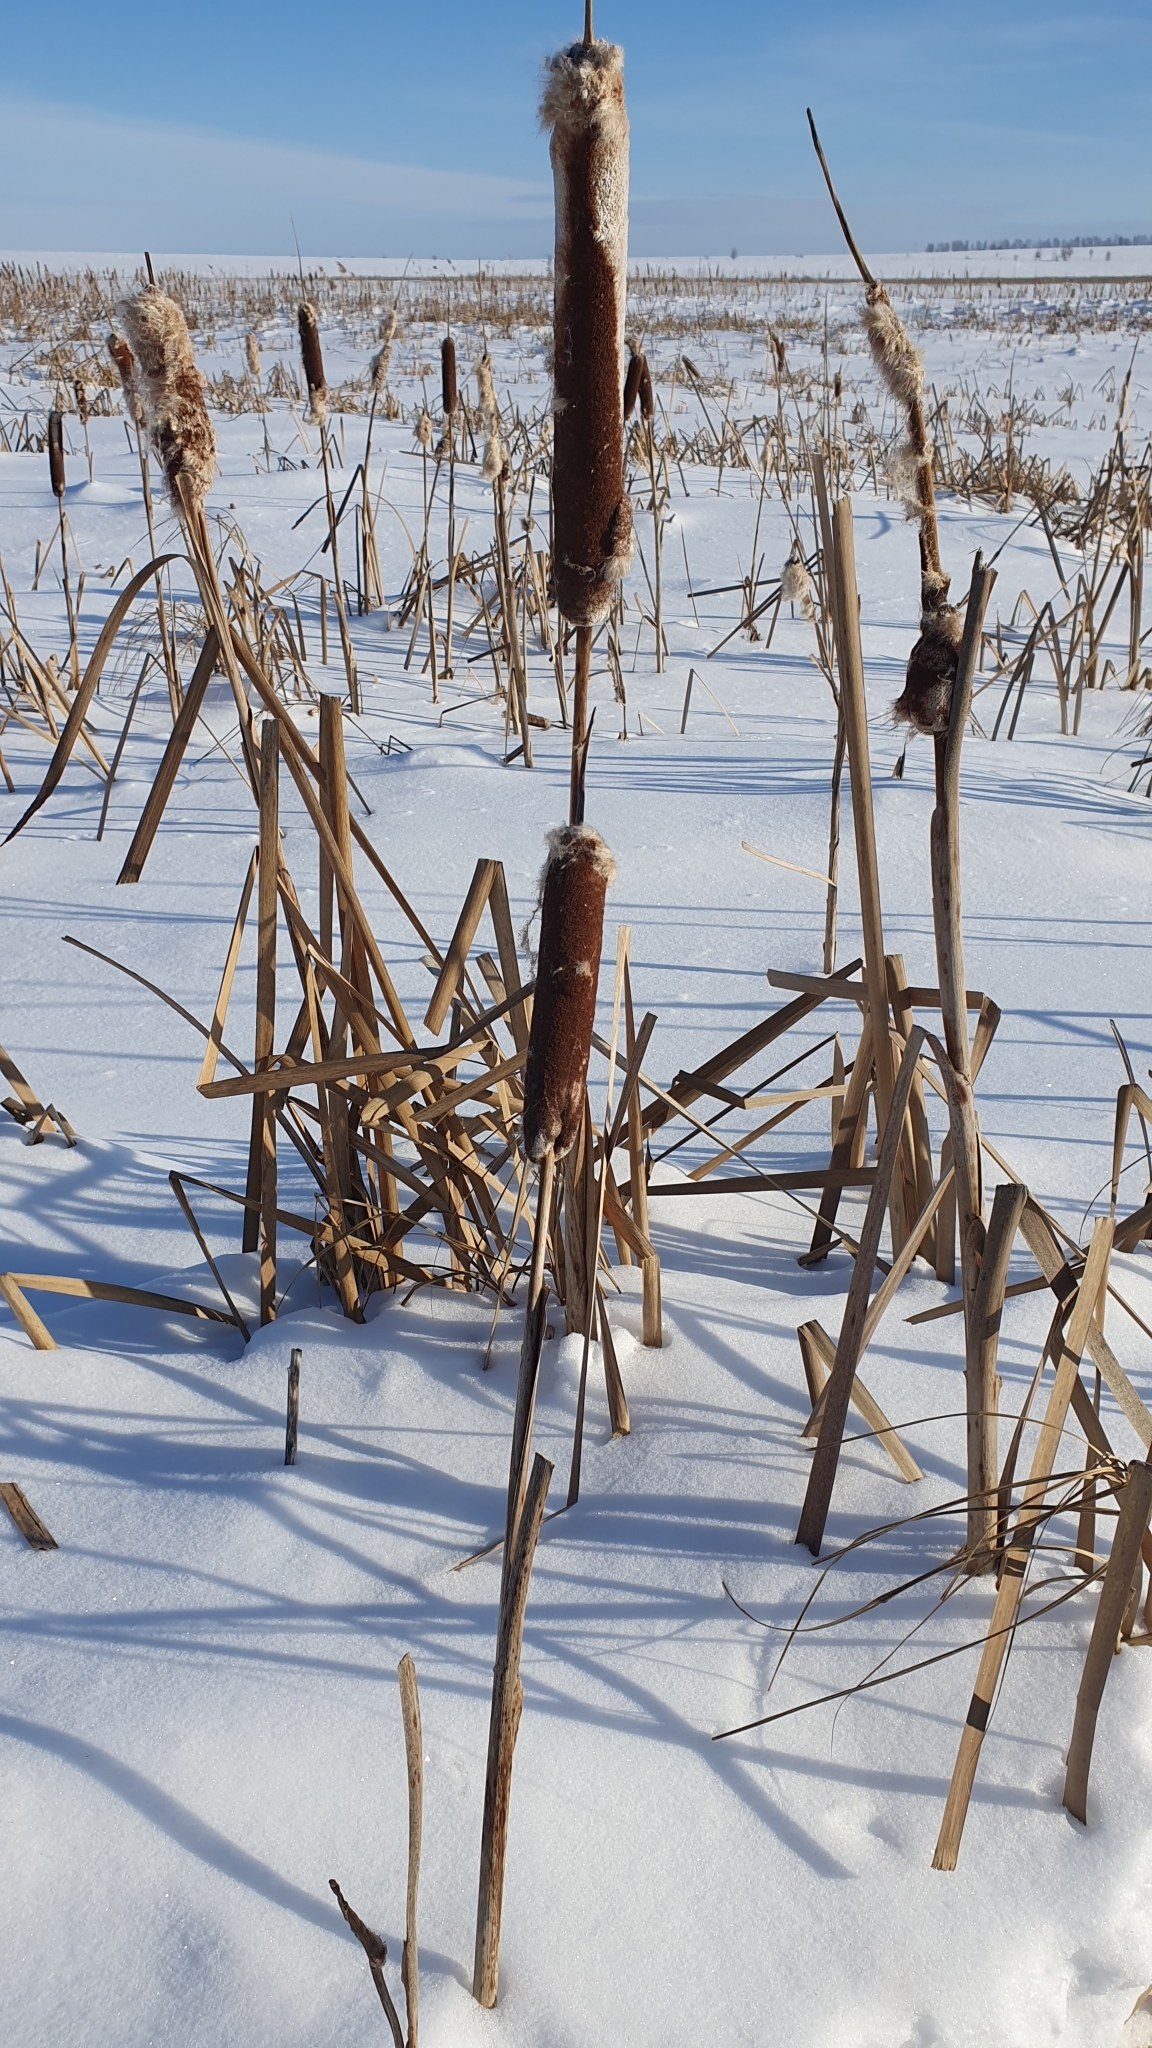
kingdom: Plantae
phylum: Tracheophyta
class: Liliopsida
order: Poales
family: Typhaceae
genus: Typha
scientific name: Typha latifolia
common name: Broadleaf cattail
